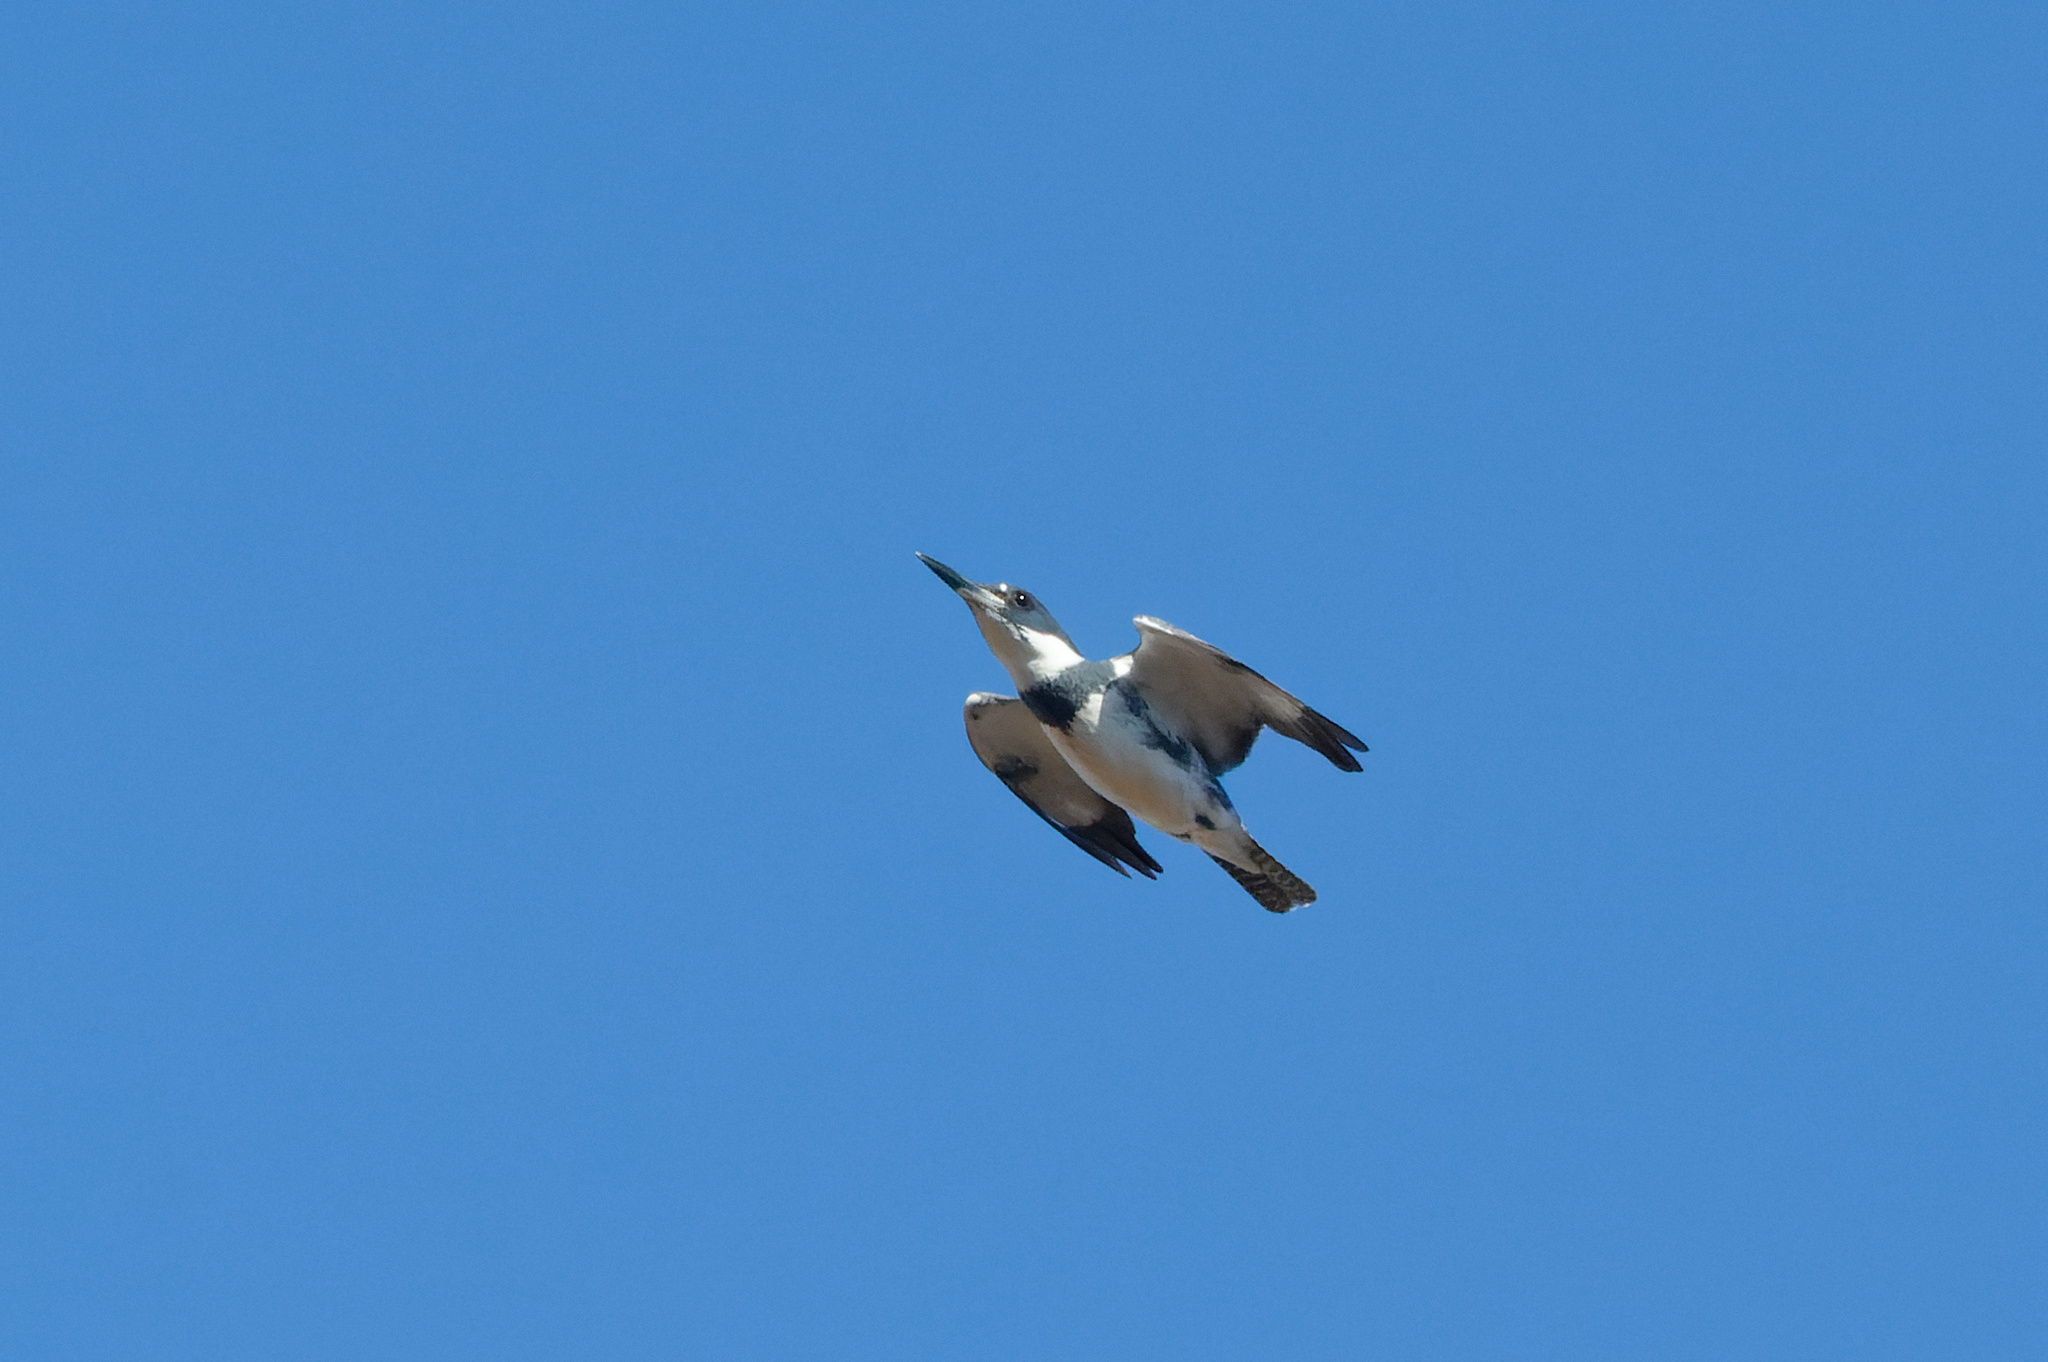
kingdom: Animalia
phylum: Chordata
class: Aves
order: Coraciiformes
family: Alcedinidae
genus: Megaceryle
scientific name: Megaceryle alcyon
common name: Belted kingfisher
